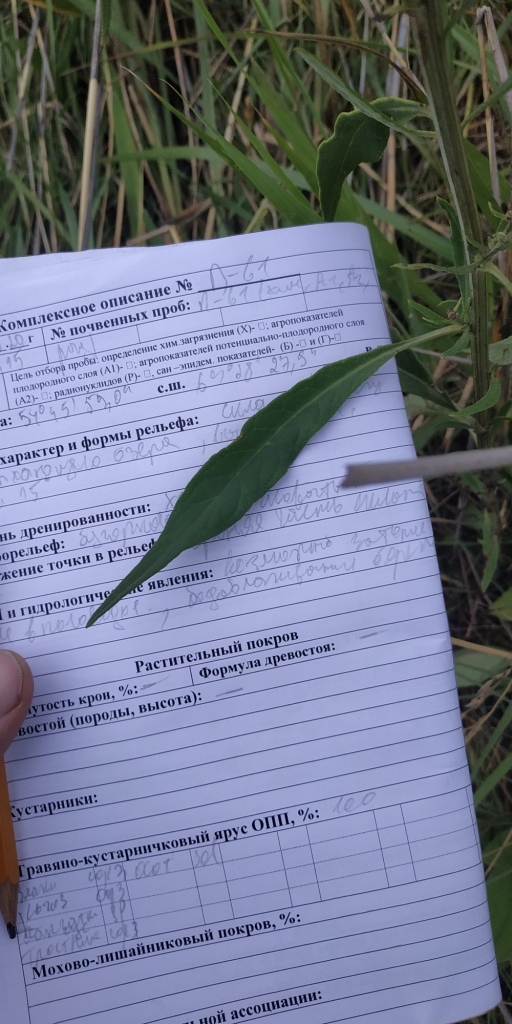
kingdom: Plantae
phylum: Tracheophyta
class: Magnoliopsida
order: Asterales
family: Asteraceae
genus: Saussurea
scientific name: Saussurea amara
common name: Alberta sawwort
